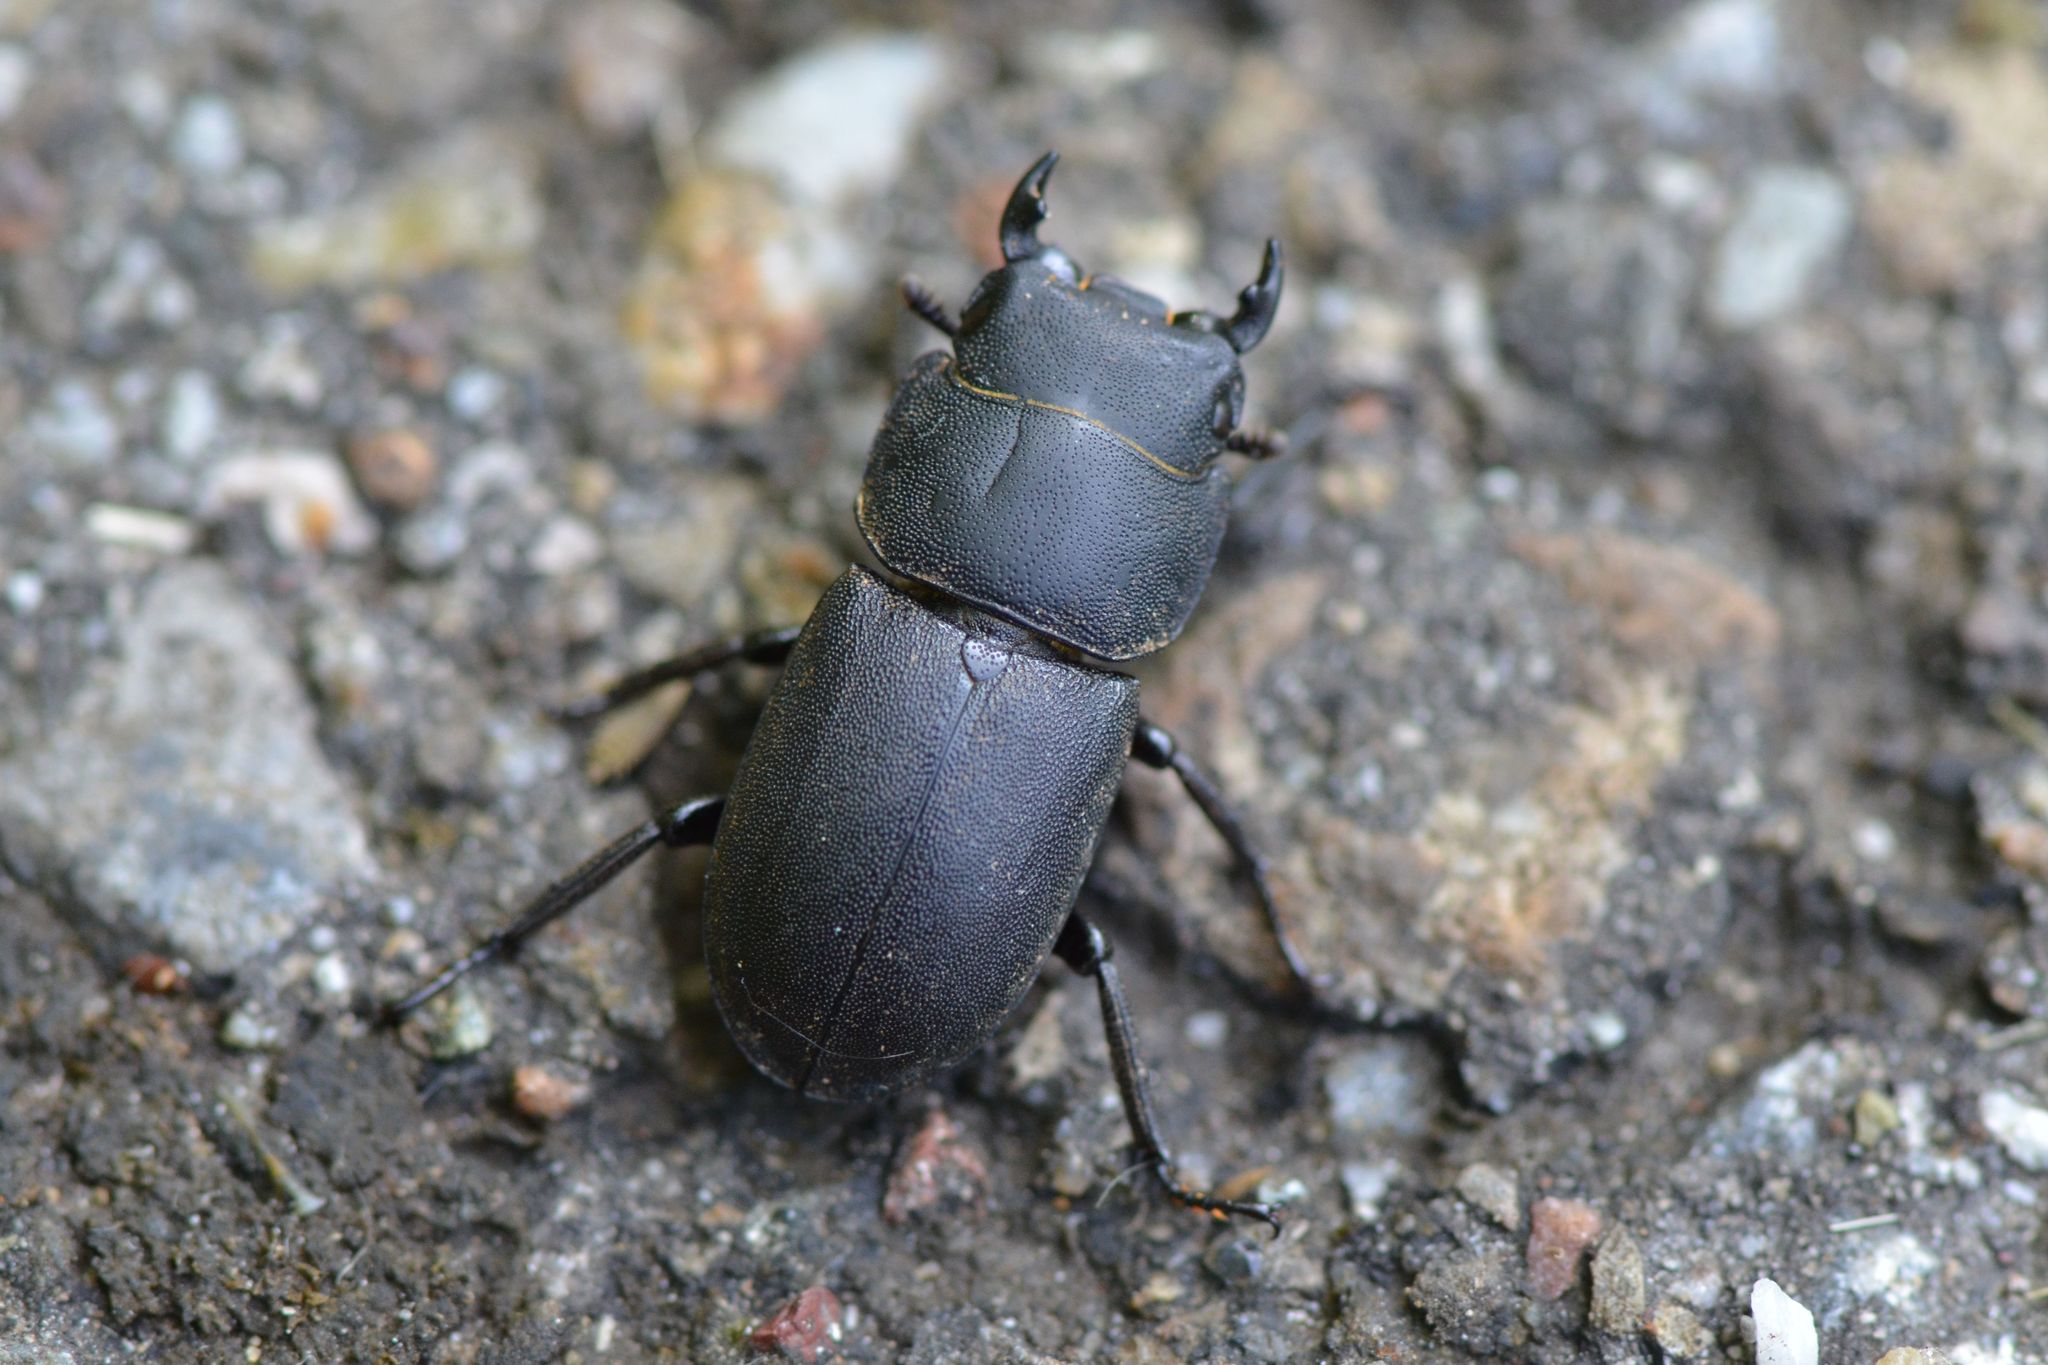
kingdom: Animalia
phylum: Arthropoda
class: Insecta
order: Coleoptera
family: Lucanidae
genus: Dorcus
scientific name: Dorcus parallelipipedus
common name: Lesser stag beetle
